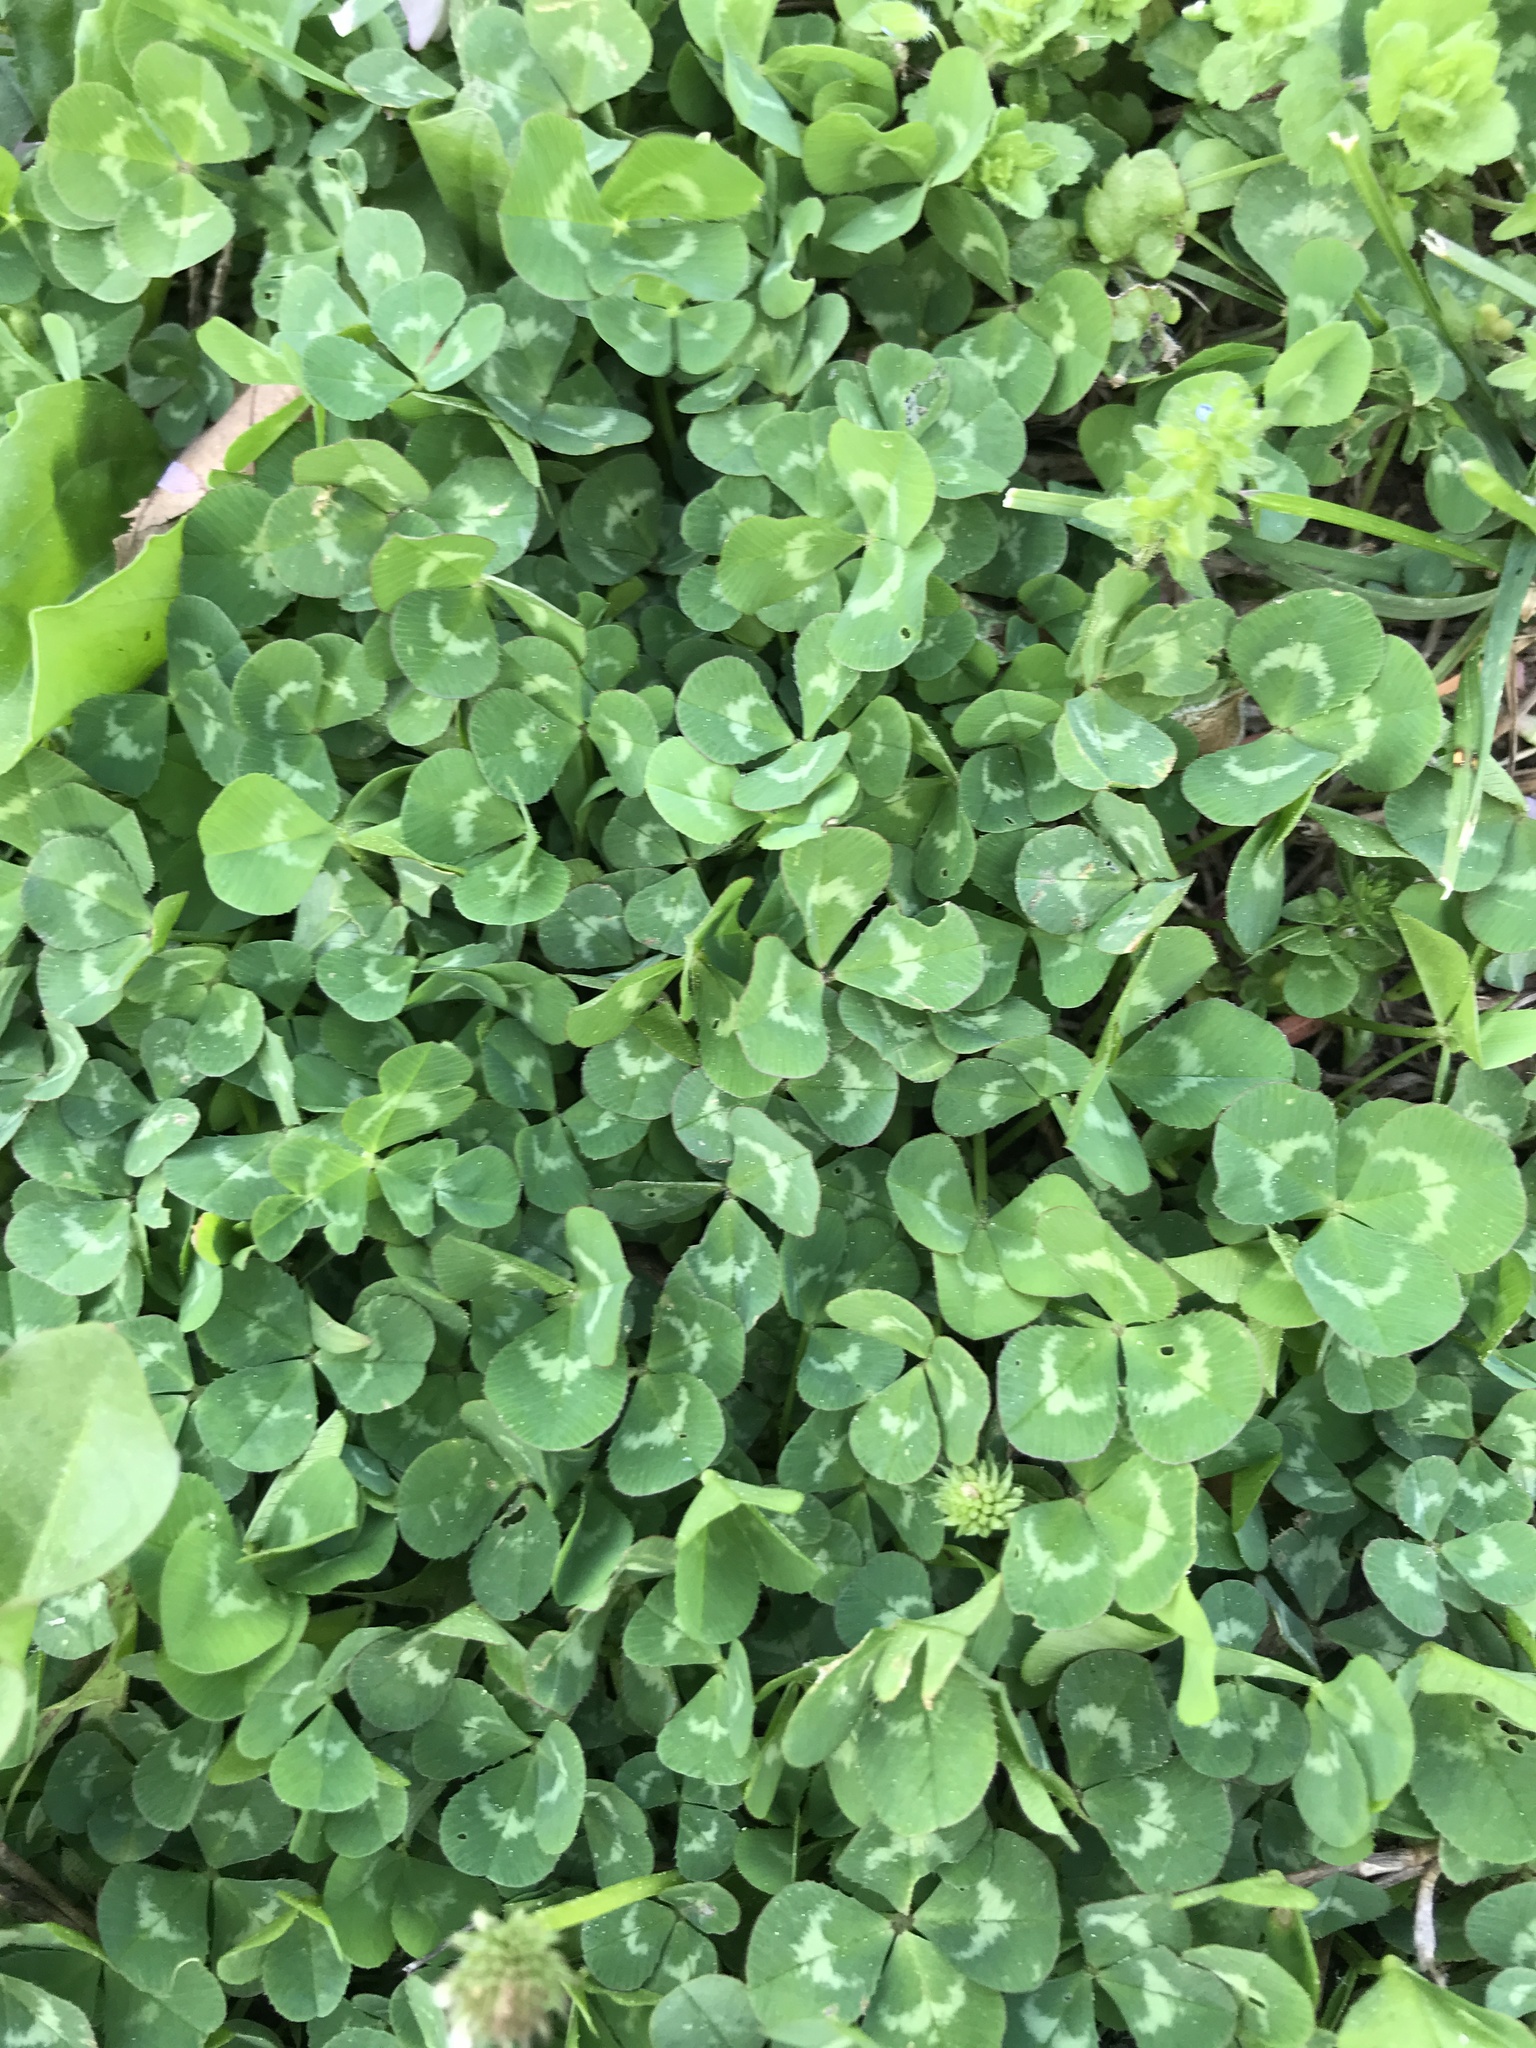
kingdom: Plantae
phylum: Tracheophyta
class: Magnoliopsida
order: Fabales
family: Fabaceae
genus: Trifolium
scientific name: Trifolium repens
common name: White clover
